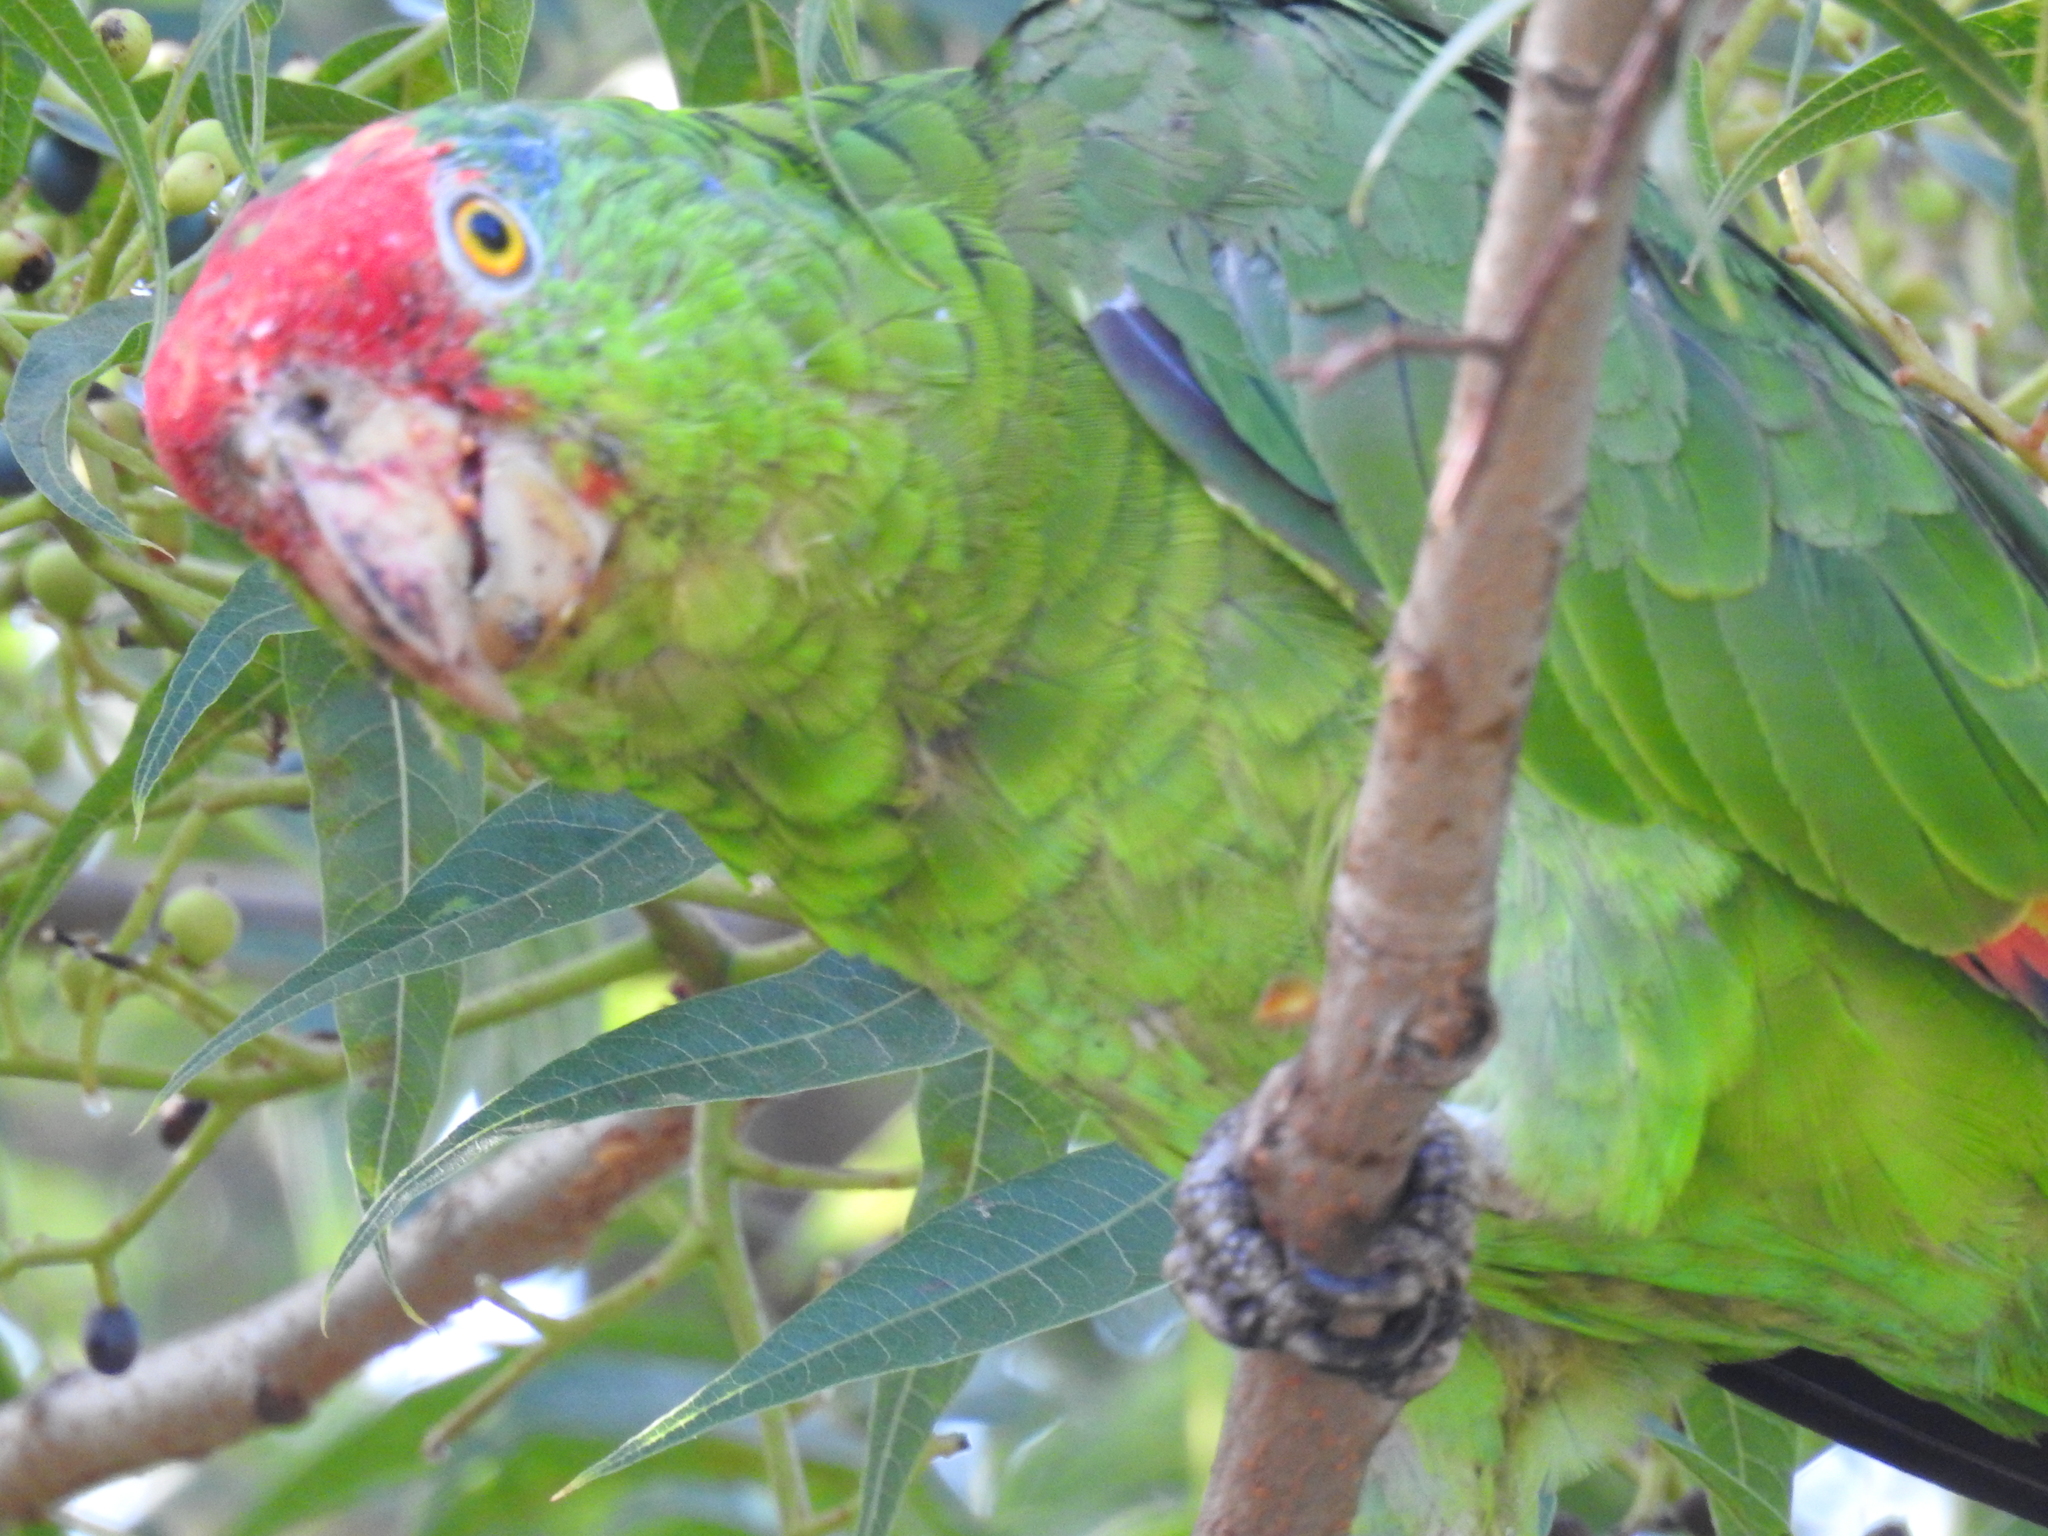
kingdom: Animalia
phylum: Chordata
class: Aves
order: Psittaciformes
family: Psittacidae
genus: Amazona
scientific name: Amazona viridigenalis
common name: Red-crowned amazon
